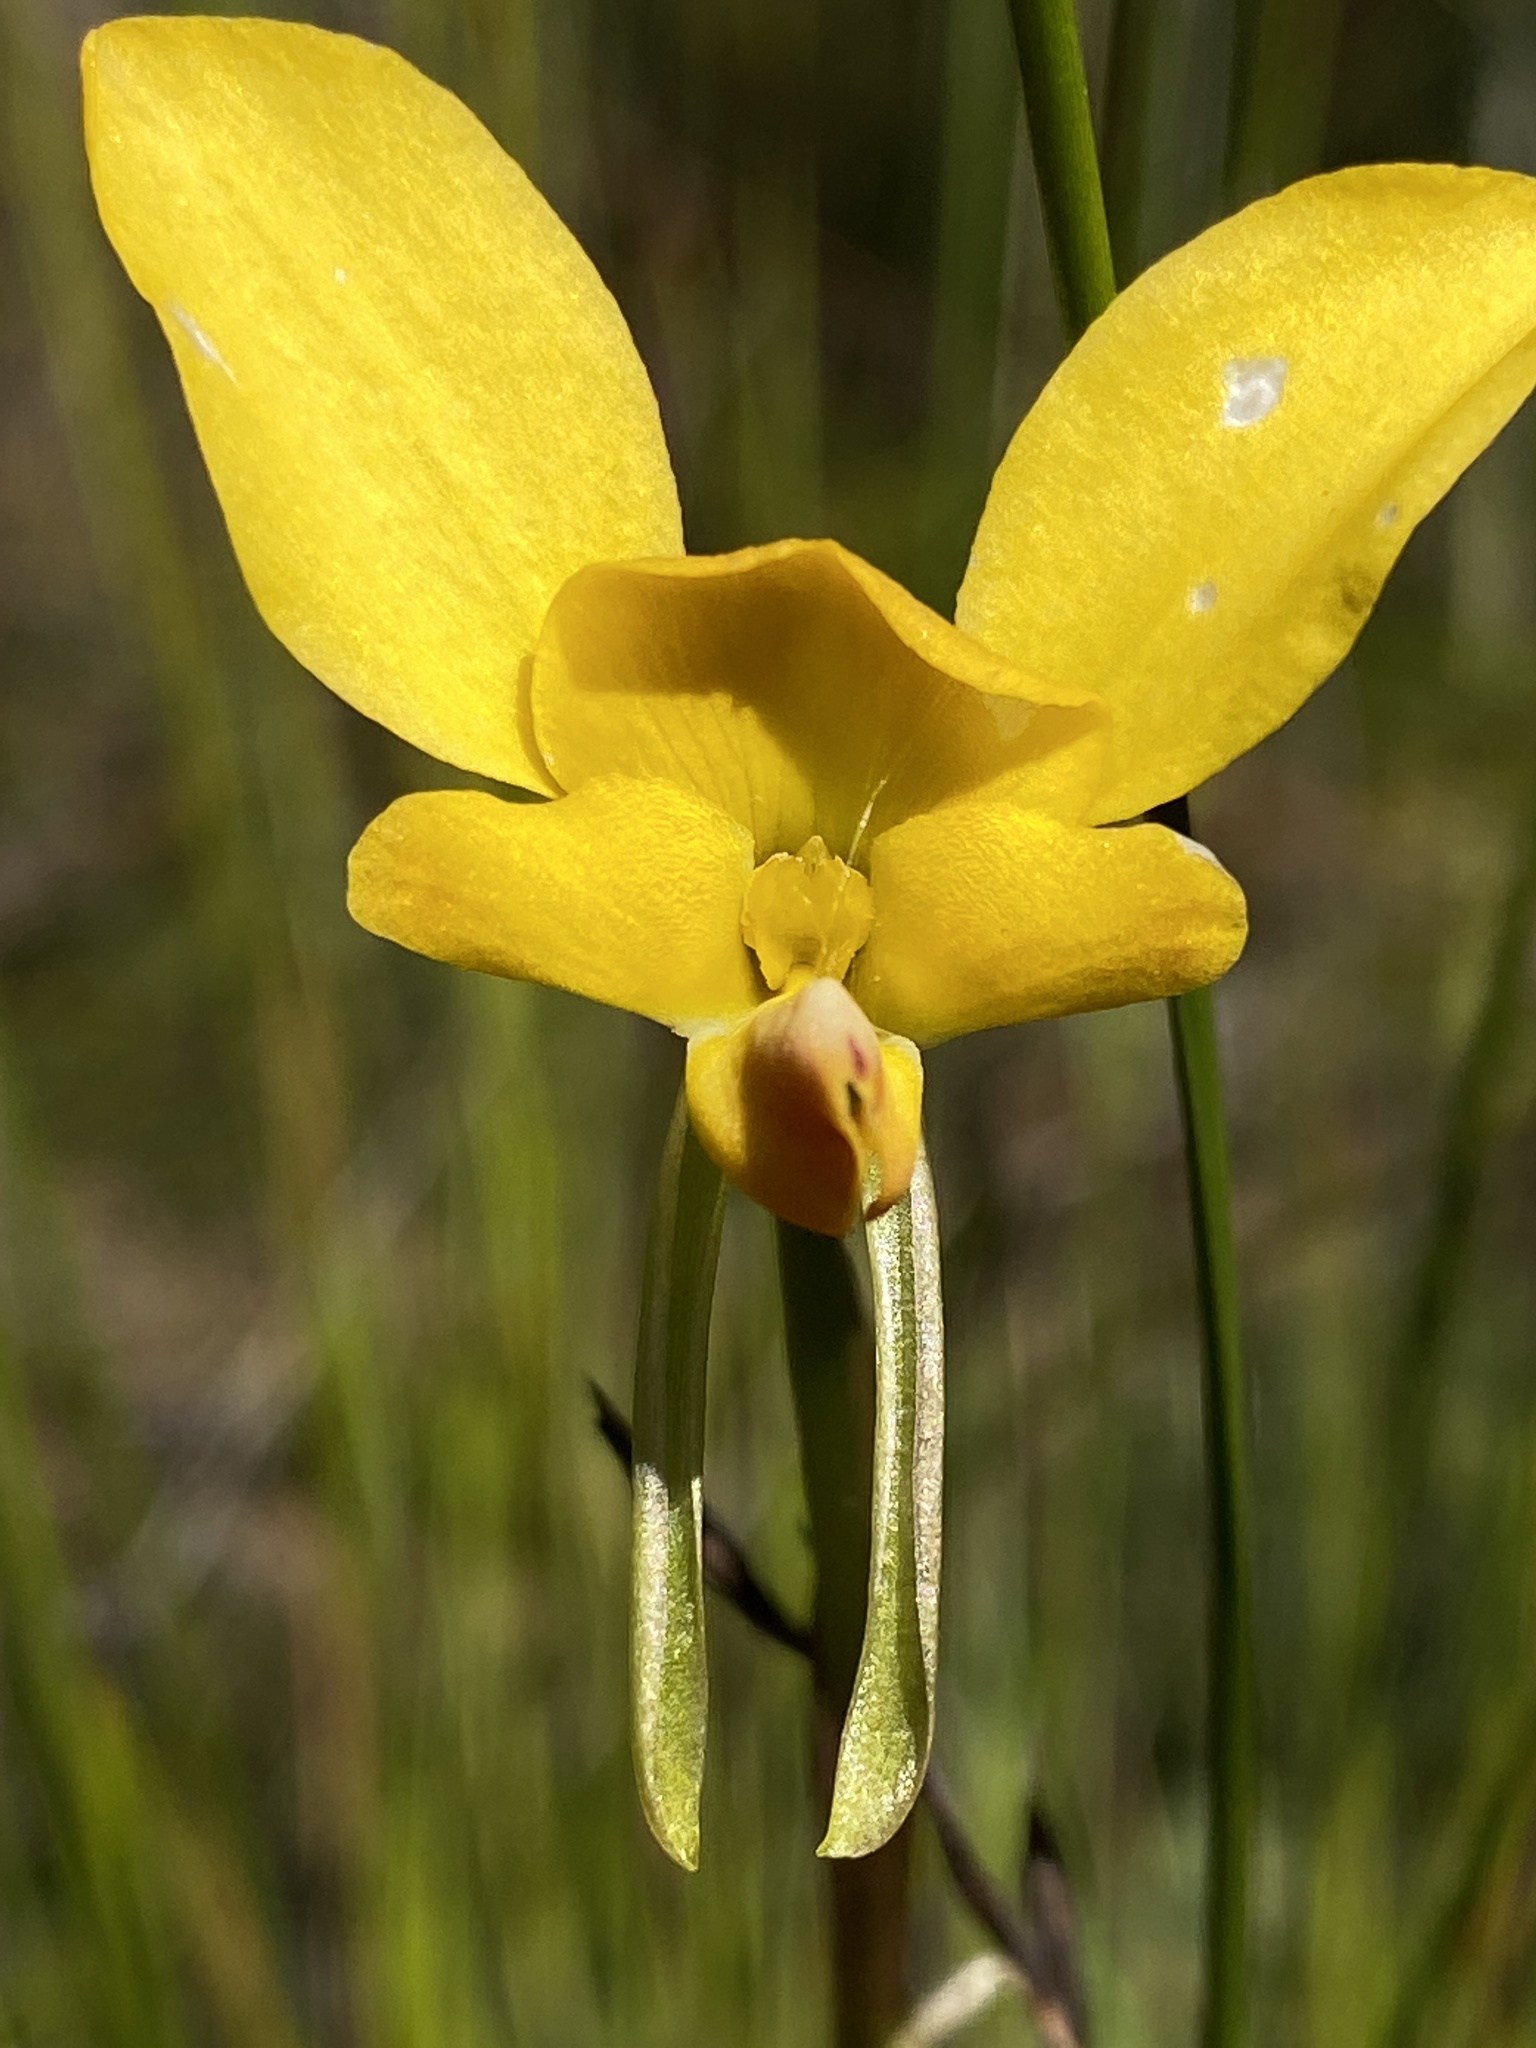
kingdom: Plantae
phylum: Tracheophyta
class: Liliopsida
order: Asparagales
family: Orchidaceae
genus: Diuris
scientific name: Diuris orientis
